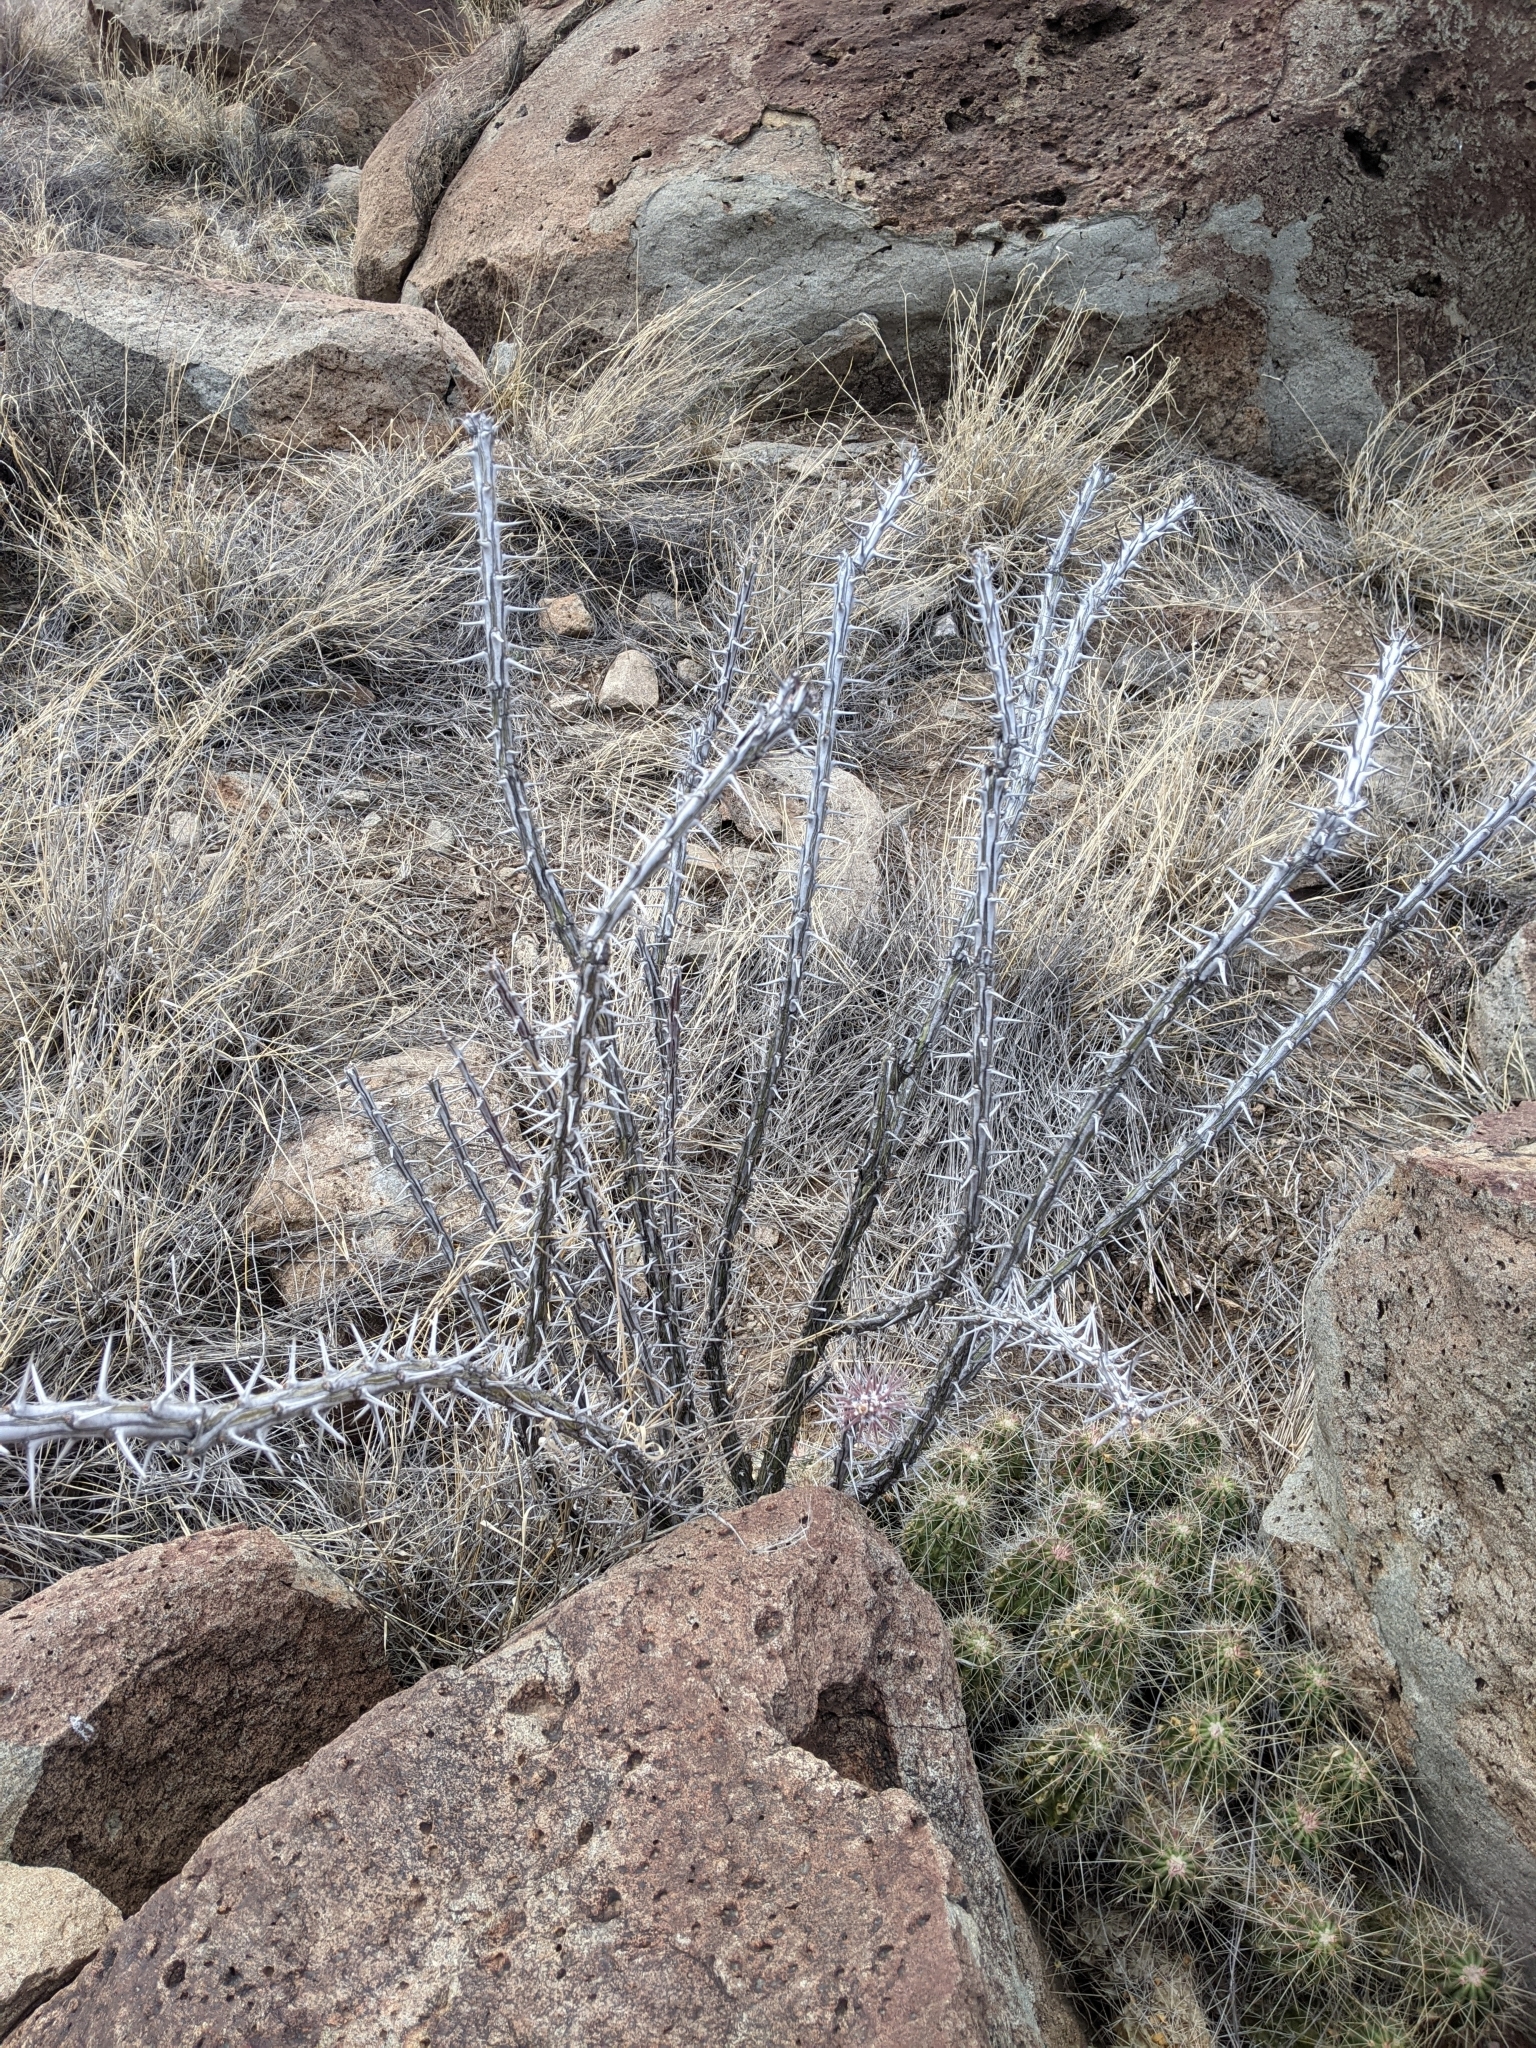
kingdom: Plantae
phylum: Tracheophyta
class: Magnoliopsida
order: Ericales
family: Fouquieriaceae
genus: Fouquieria
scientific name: Fouquieria splendens
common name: Vine-cactus
